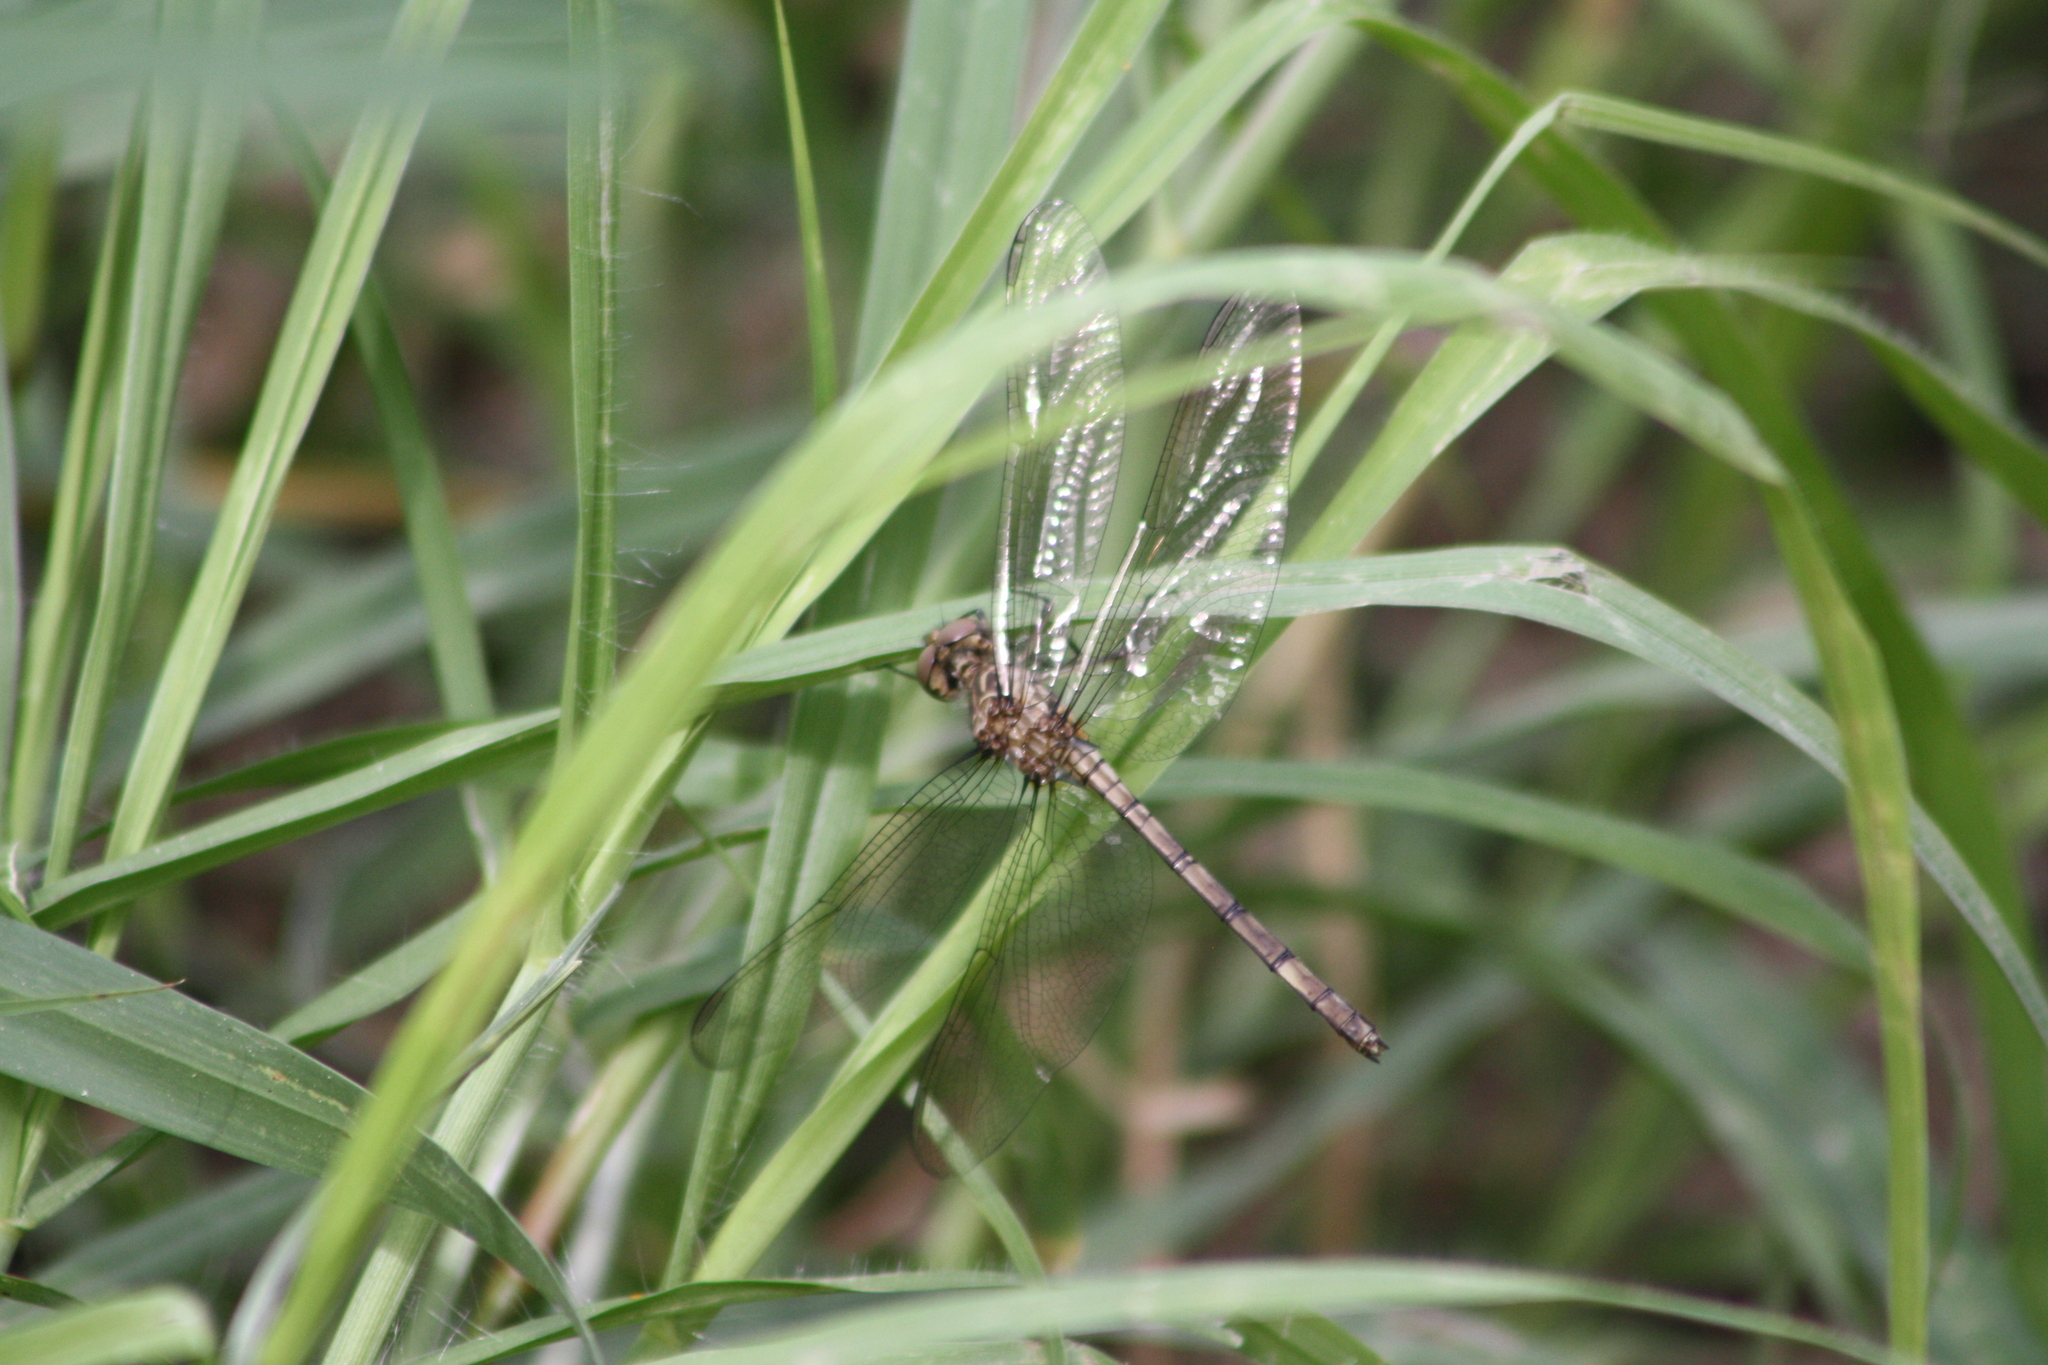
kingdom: Animalia
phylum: Arthropoda
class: Insecta
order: Odonata
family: Libellulidae
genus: Dythemis
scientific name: Dythemis nigrescens
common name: Black setwing
